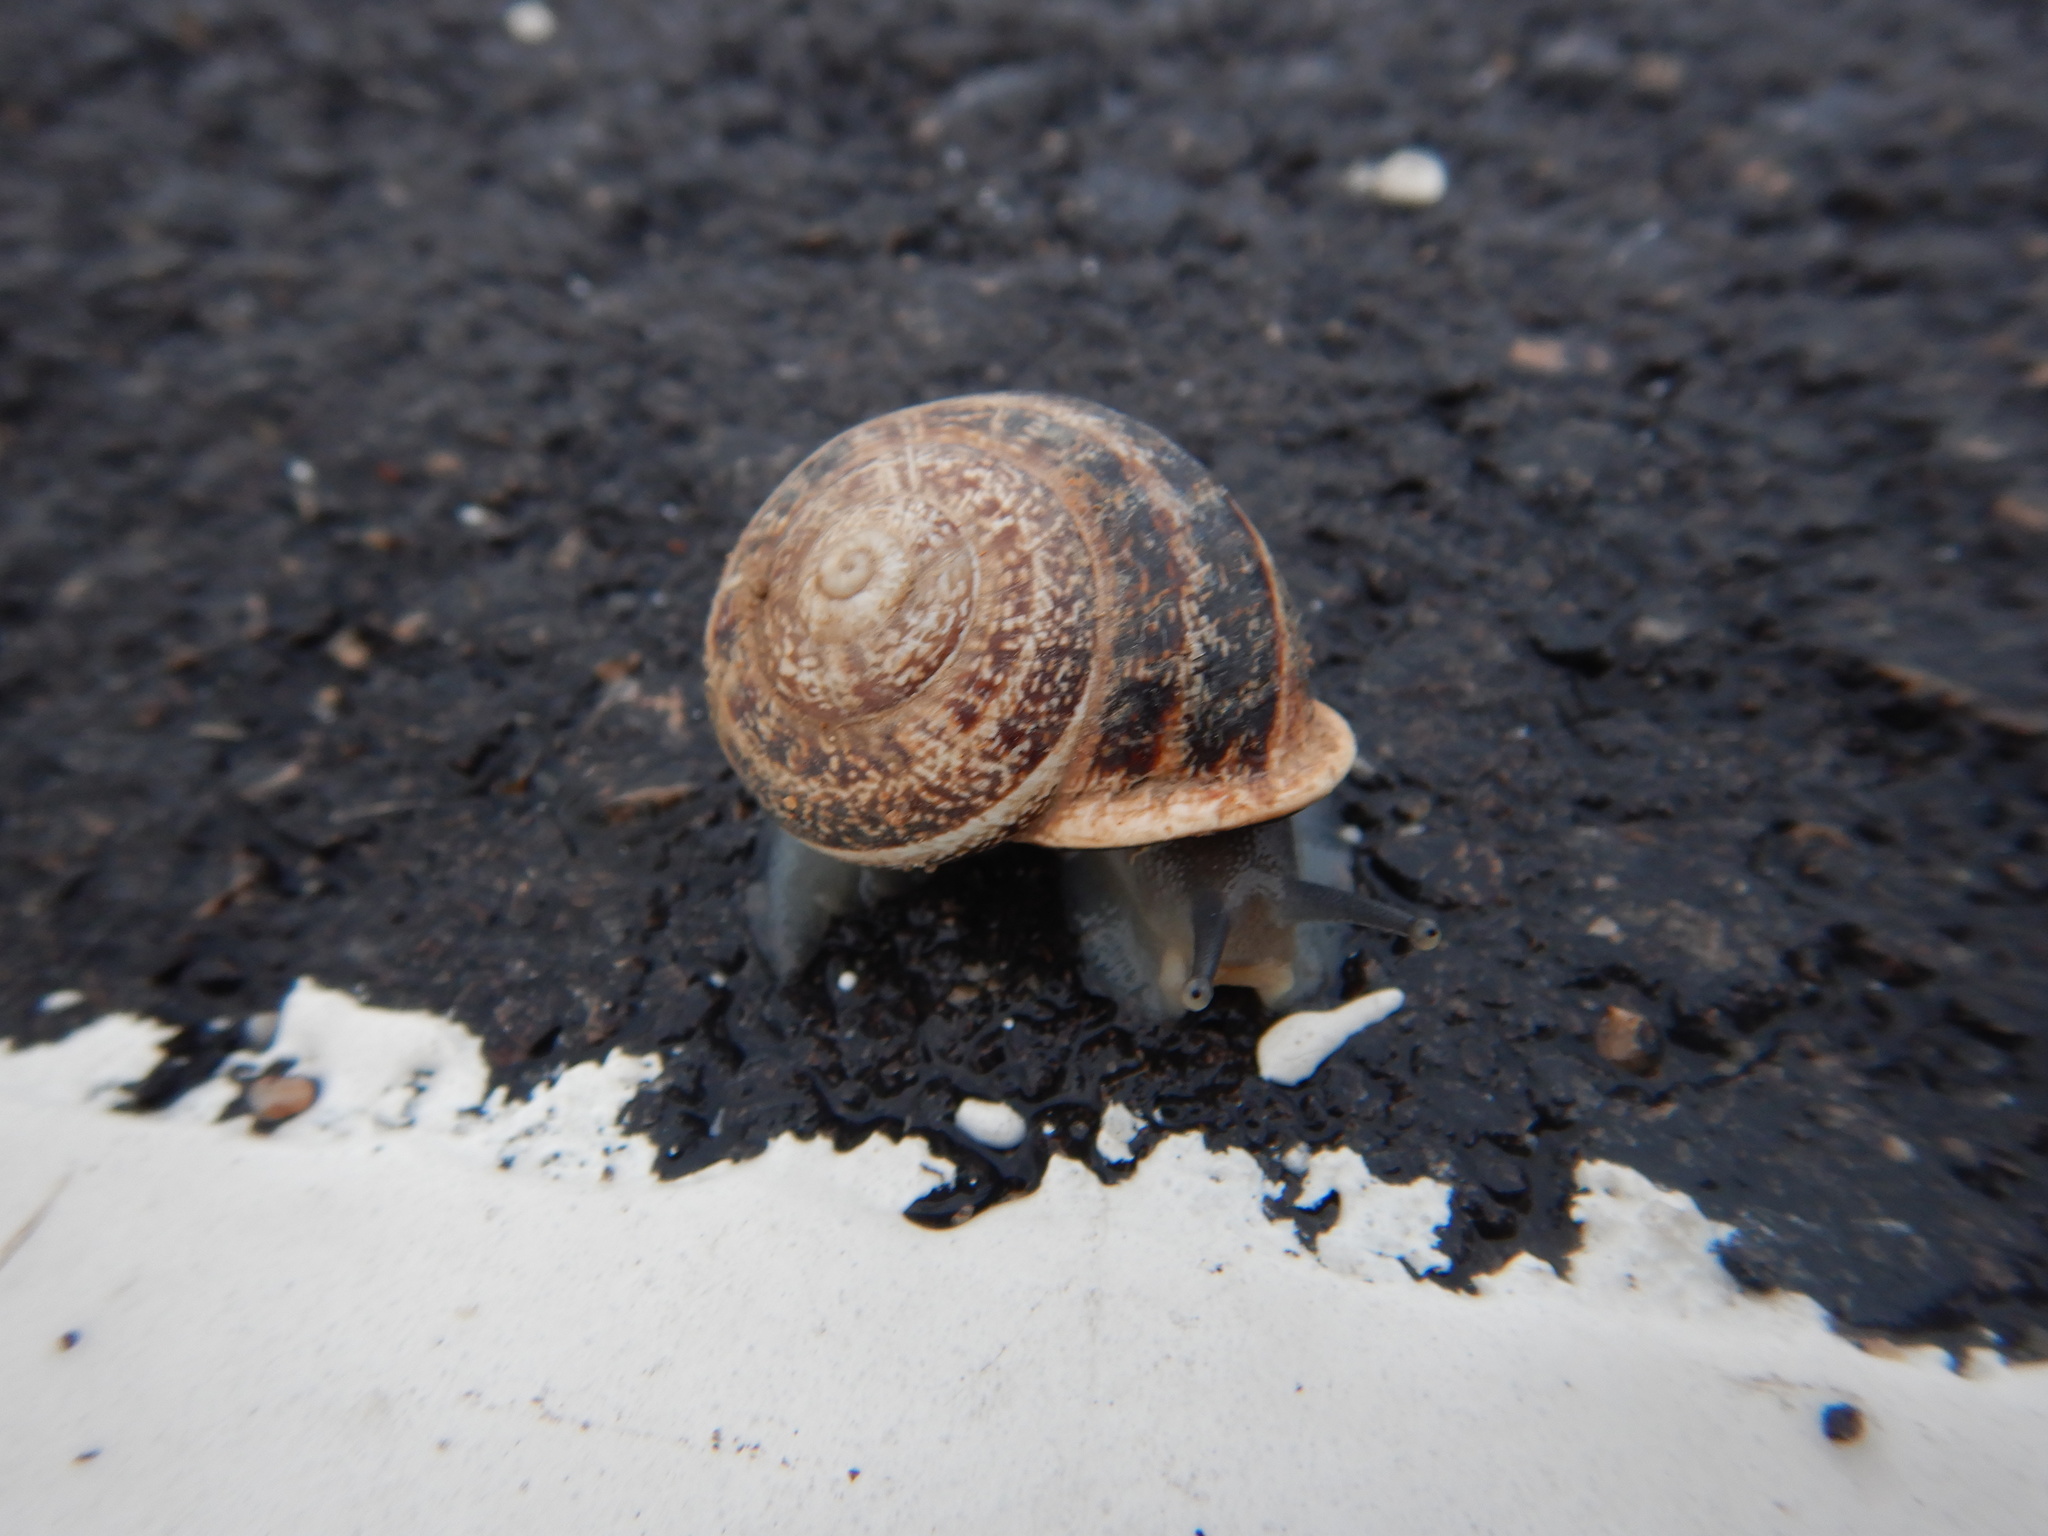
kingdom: Animalia
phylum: Mollusca
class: Gastropoda
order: Stylommatophora
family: Helicidae
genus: Otala
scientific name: Otala lactea
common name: Milk snail
